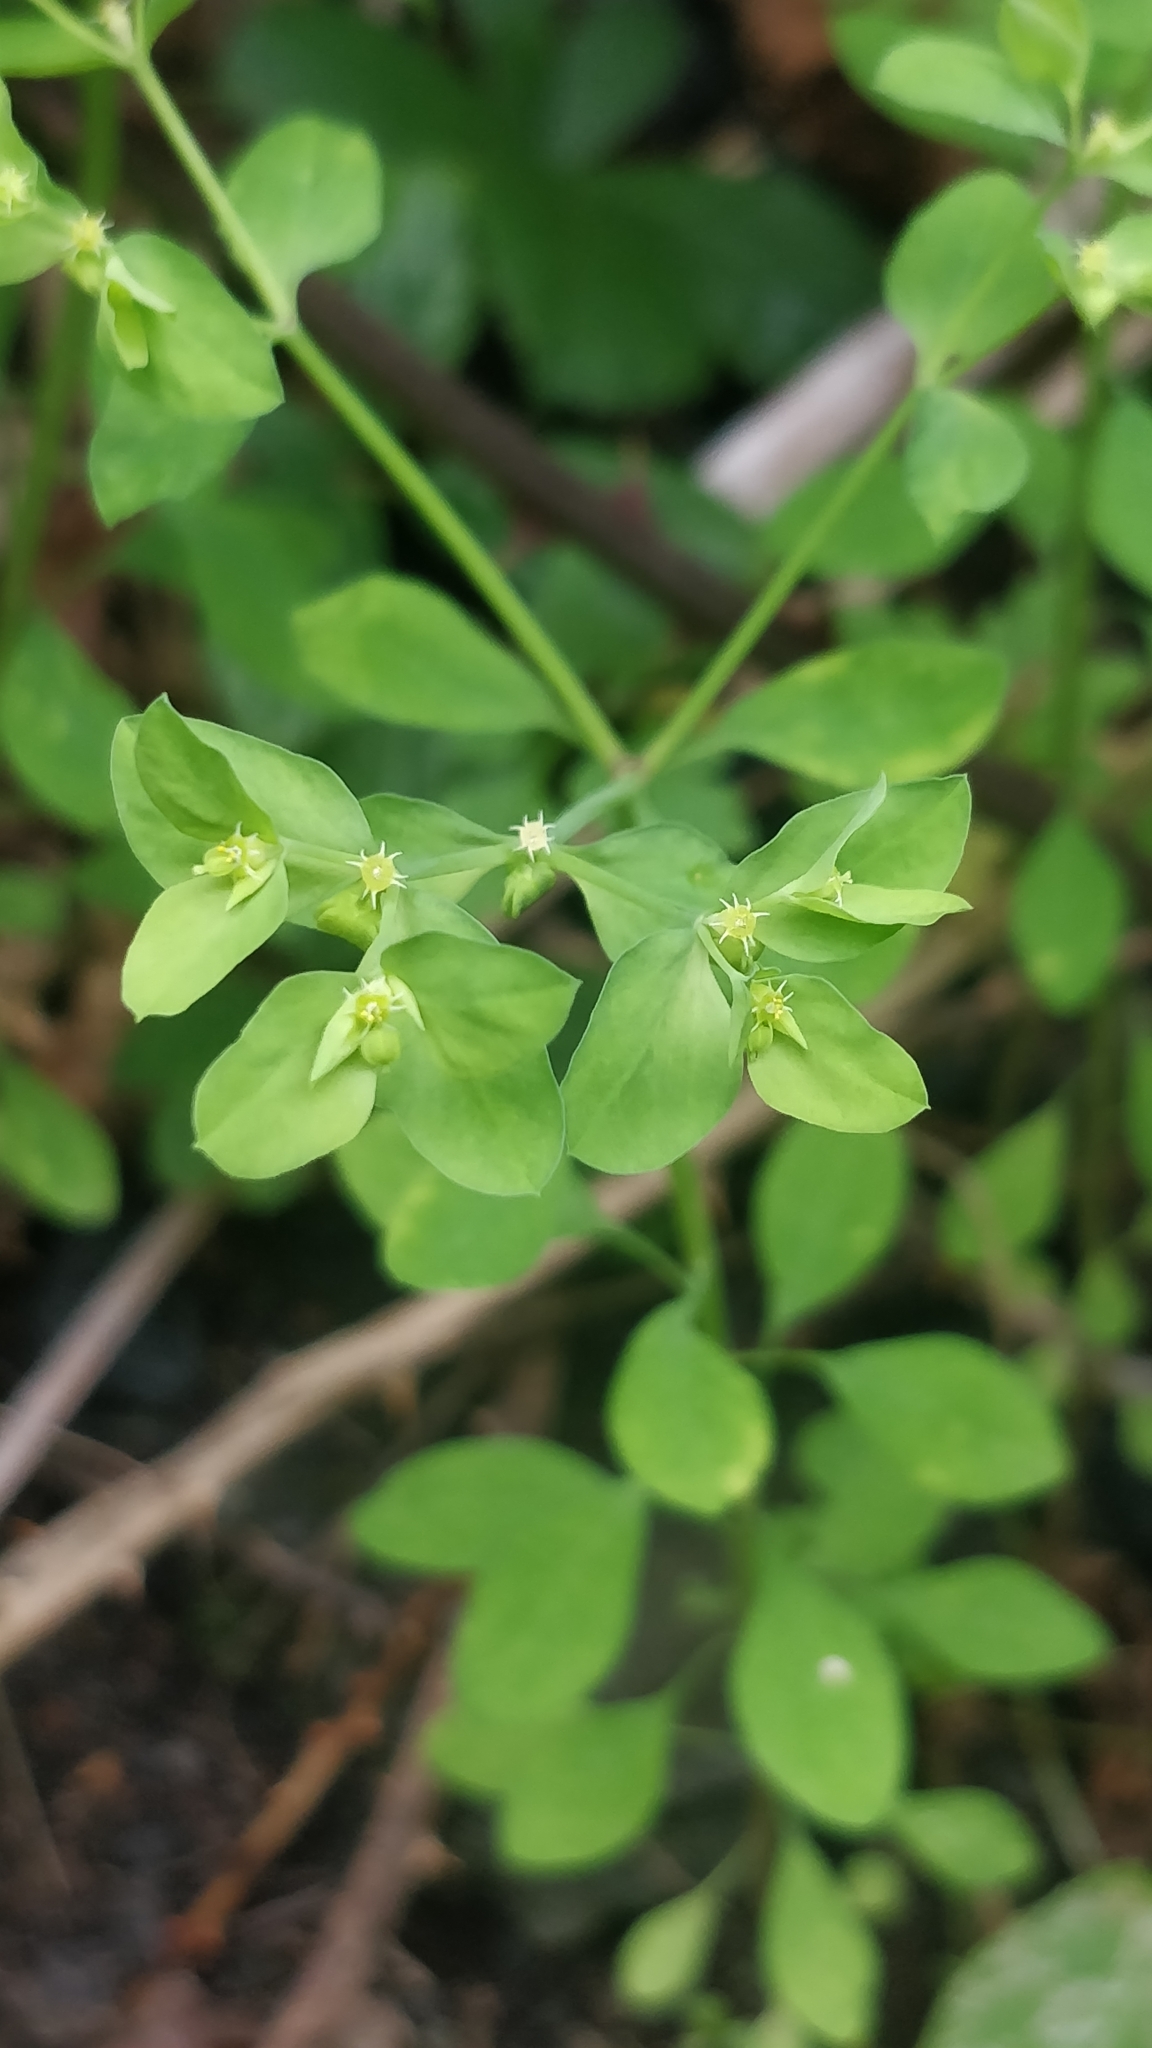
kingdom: Plantae
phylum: Tracheophyta
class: Magnoliopsida
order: Malpighiales
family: Euphorbiaceae
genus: Euphorbia
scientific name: Euphorbia peplus
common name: Petty spurge
